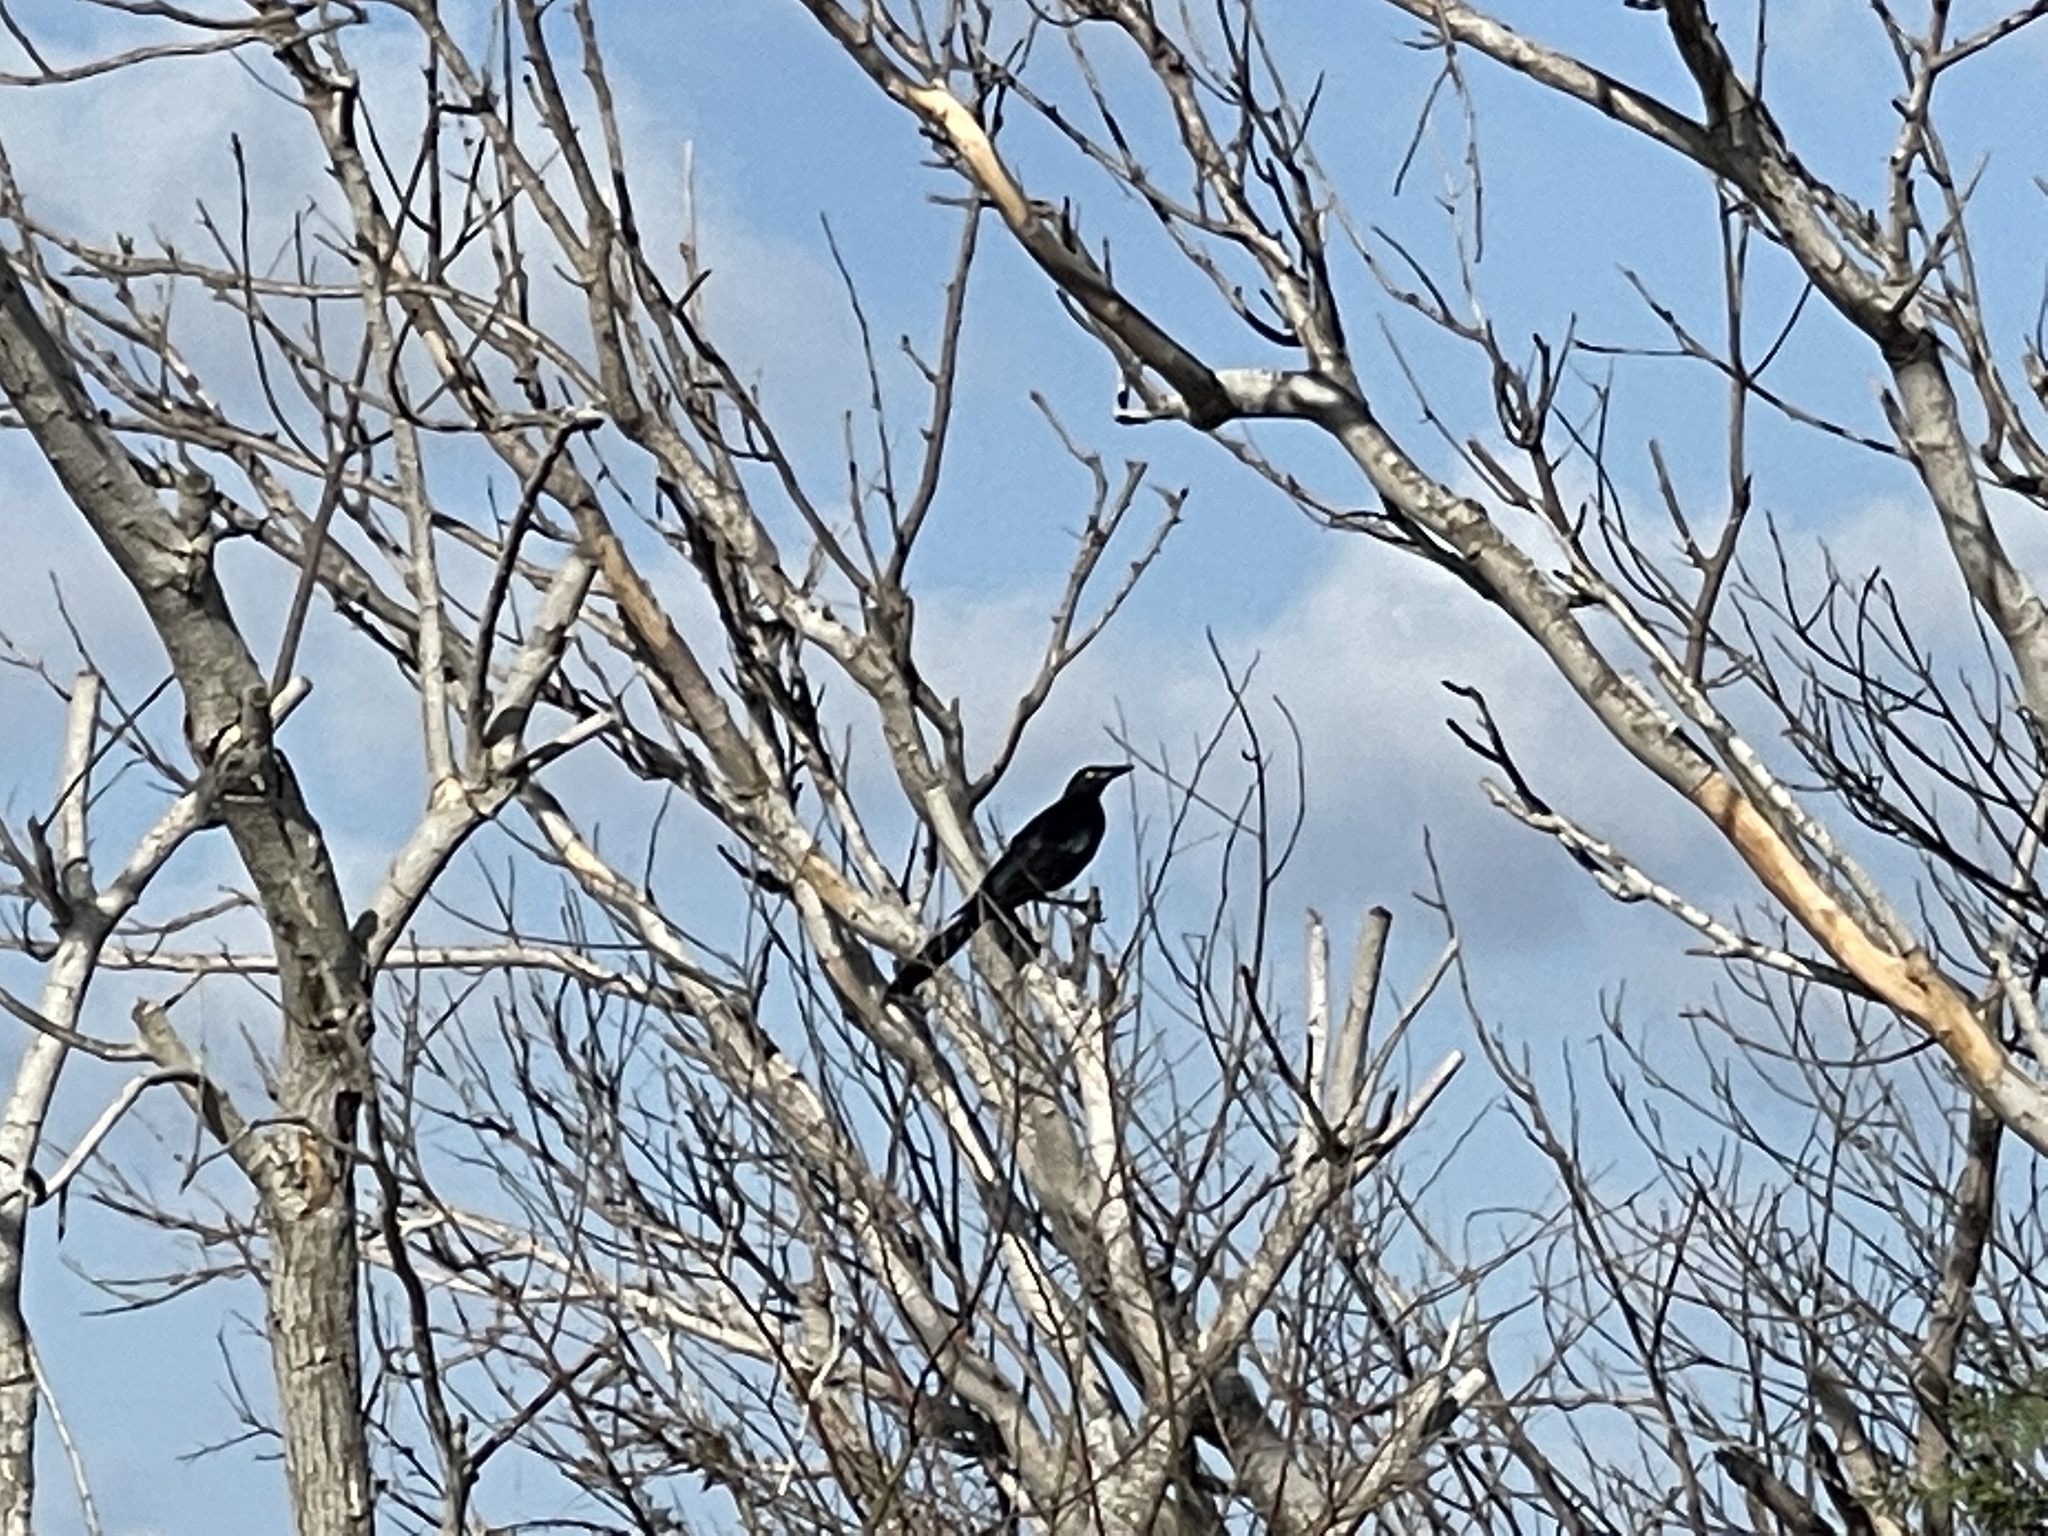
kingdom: Animalia
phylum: Chordata
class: Aves
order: Passeriformes
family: Icteridae
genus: Quiscalus
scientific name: Quiscalus mexicanus
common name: Great-tailed grackle
